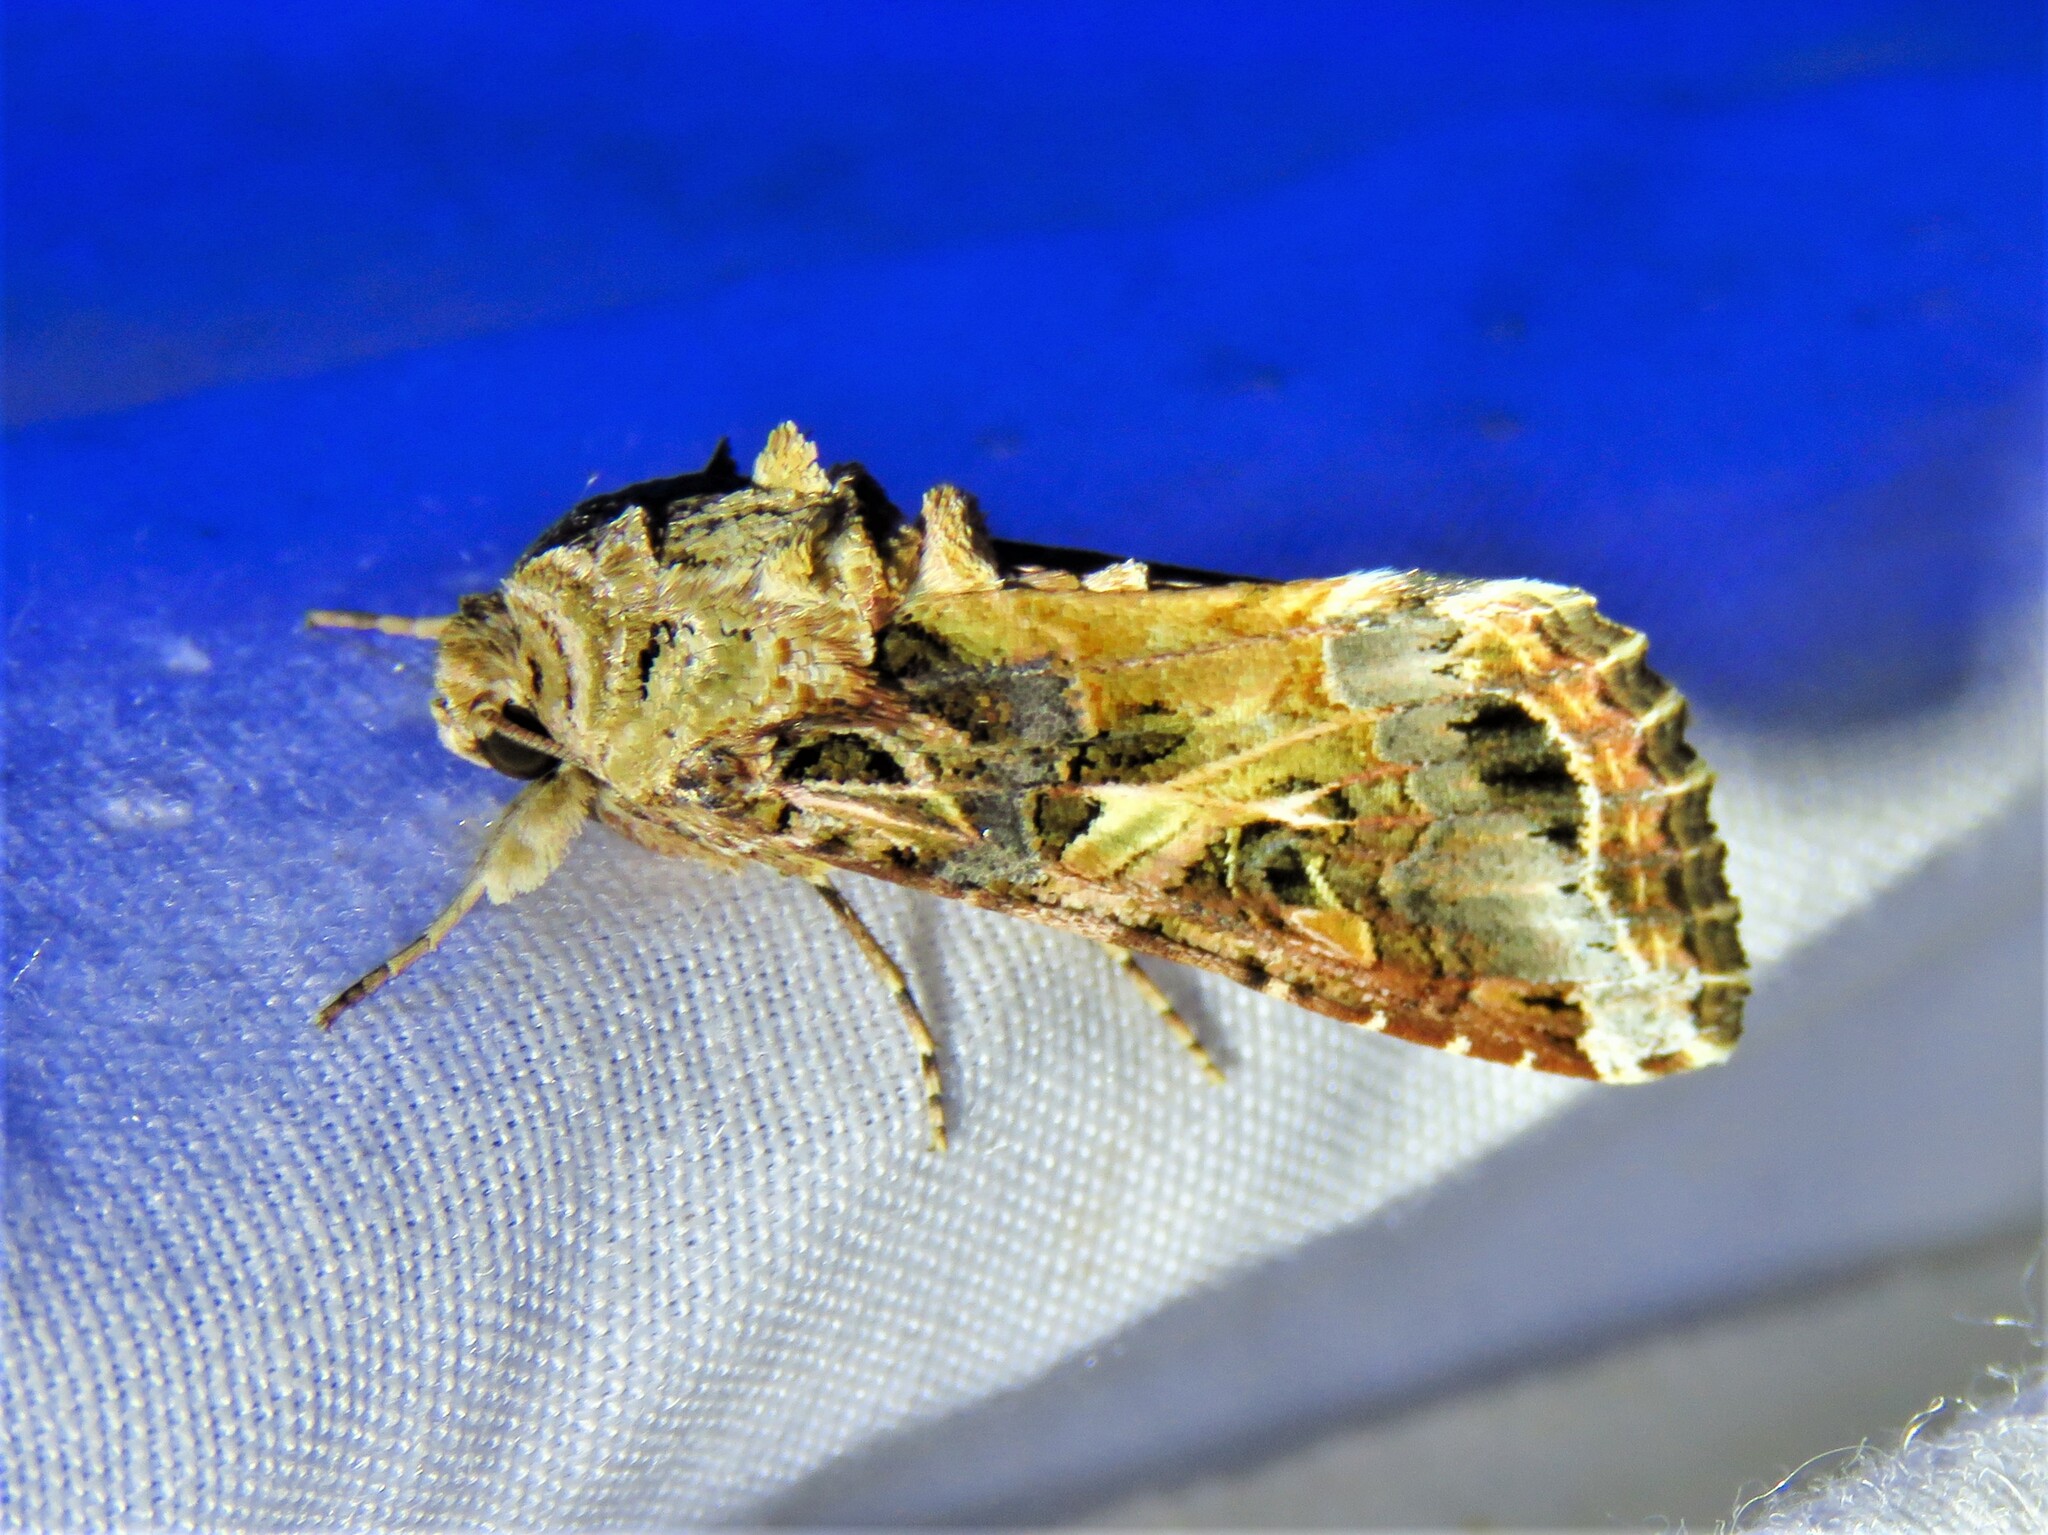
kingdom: Animalia
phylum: Arthropoda
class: Insecta
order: Lepidoptera
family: Noctuidae
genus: Spodoptera
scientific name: Spodoptera ornithogalli
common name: Yellow-striped armyworm
